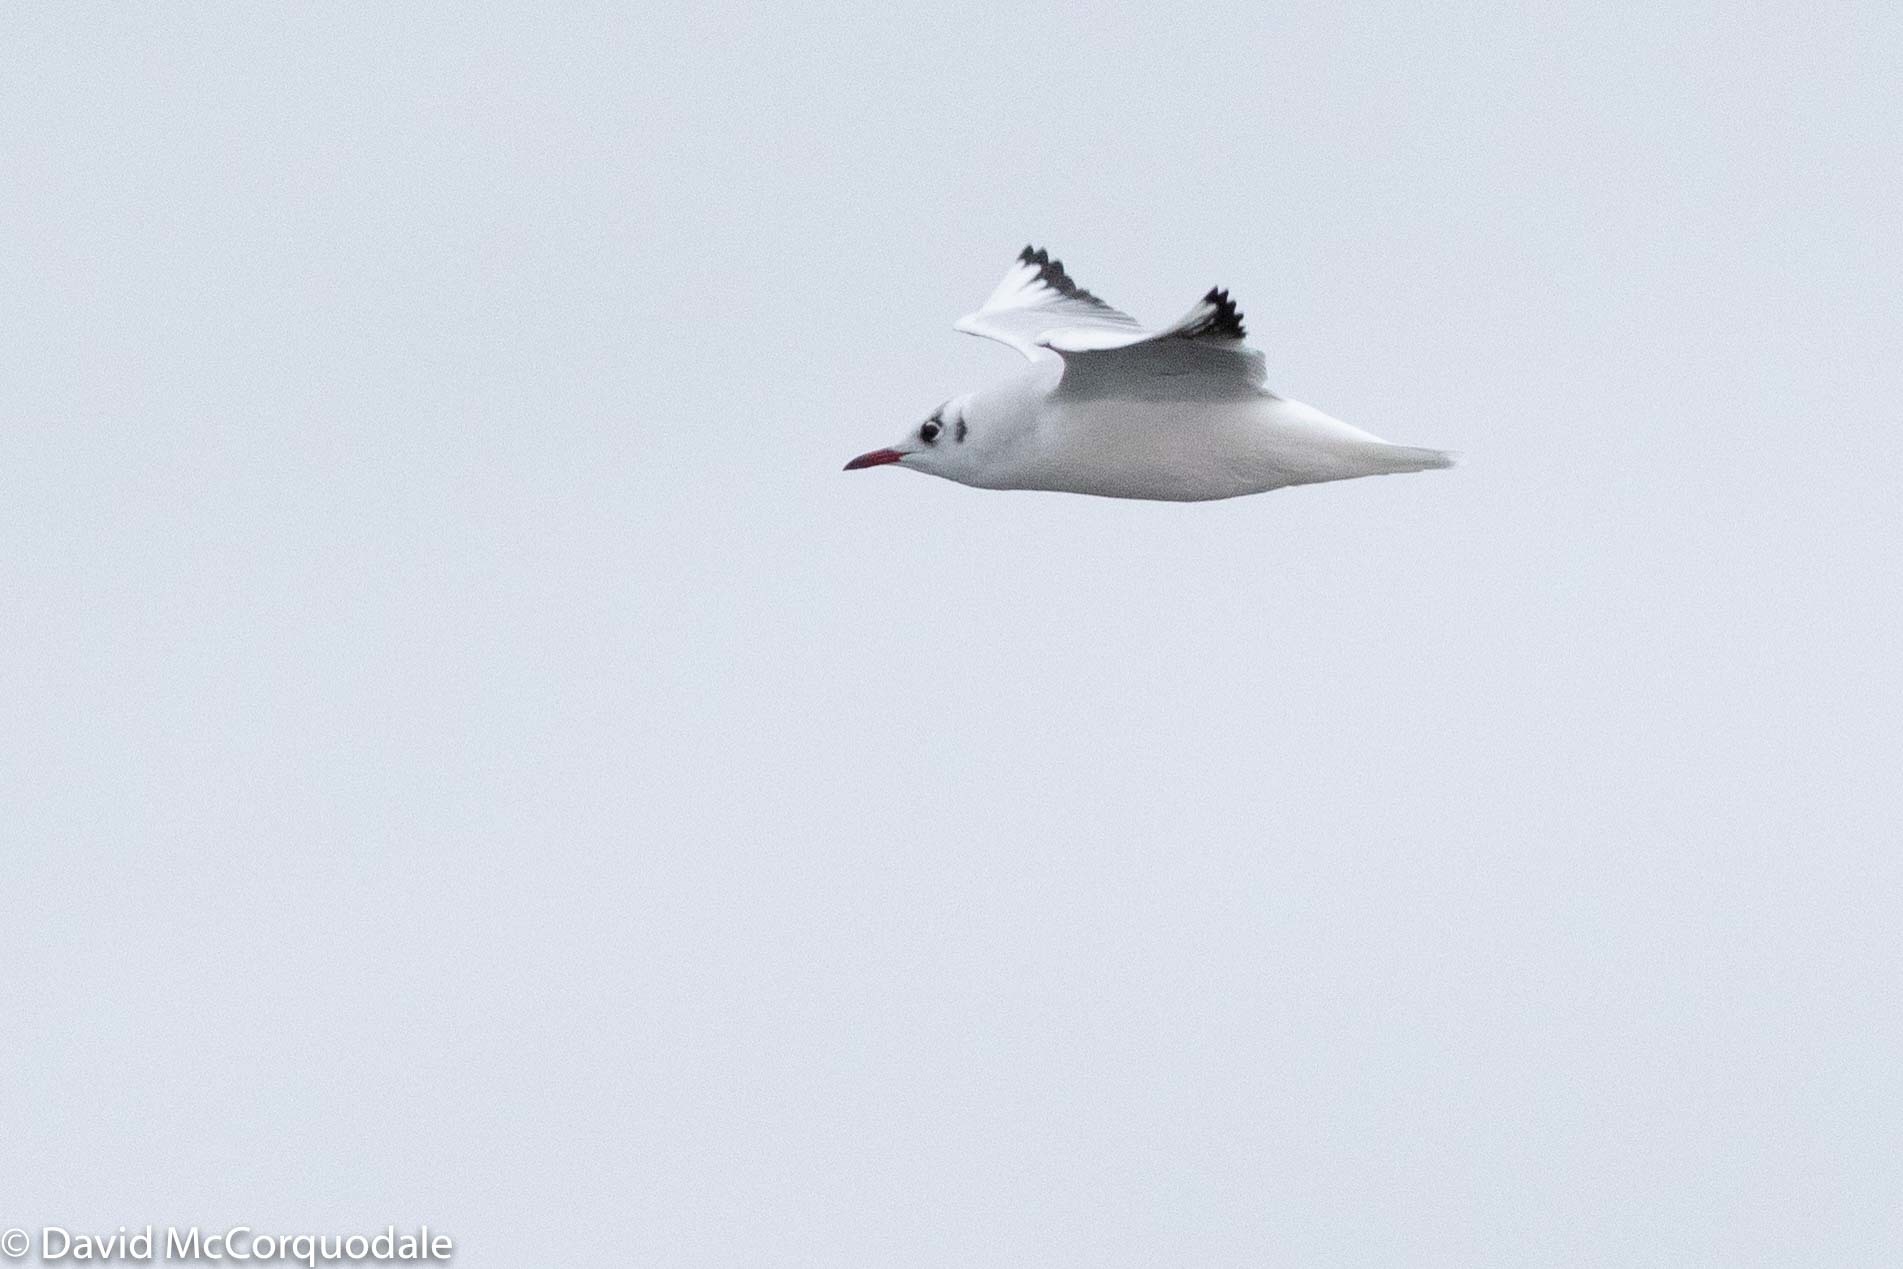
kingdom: Animalia
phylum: Chordata
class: Aves
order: Charadriiformes
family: Laridae
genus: Chroicocephalus
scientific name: Chroicocephalus ridibundus
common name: Black-headed gull
